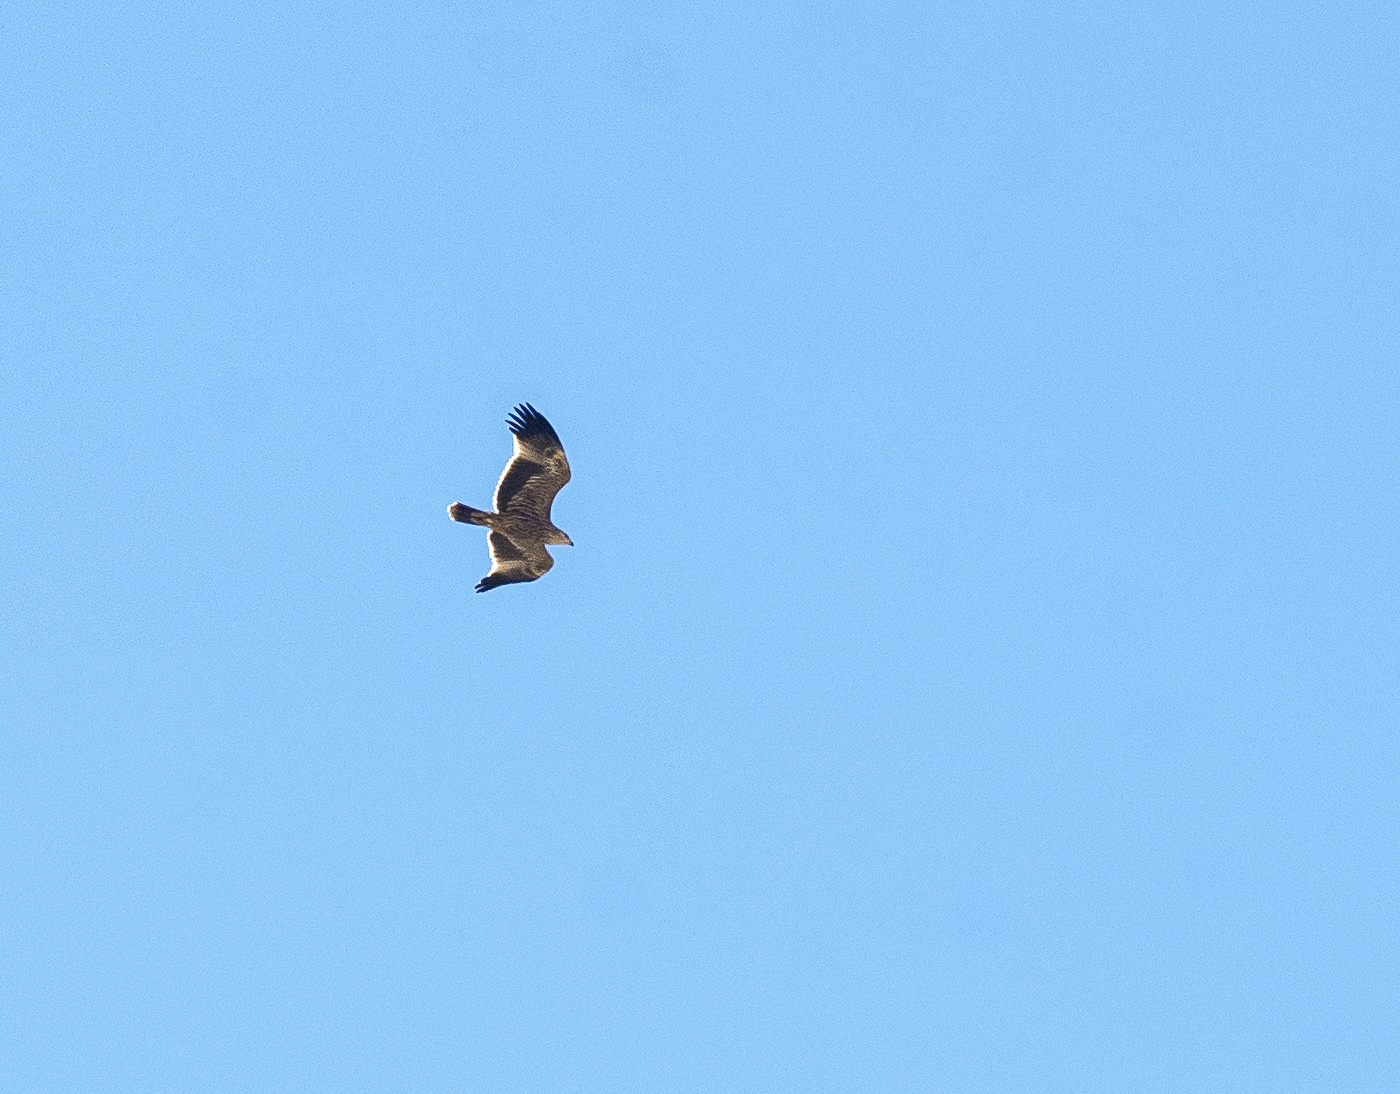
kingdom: Animalia
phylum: Chordata
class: Aves
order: Accipitriformes
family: Accipitridae
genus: Aquila
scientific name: Aquila heliaca
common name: Eastern imperial eagle
